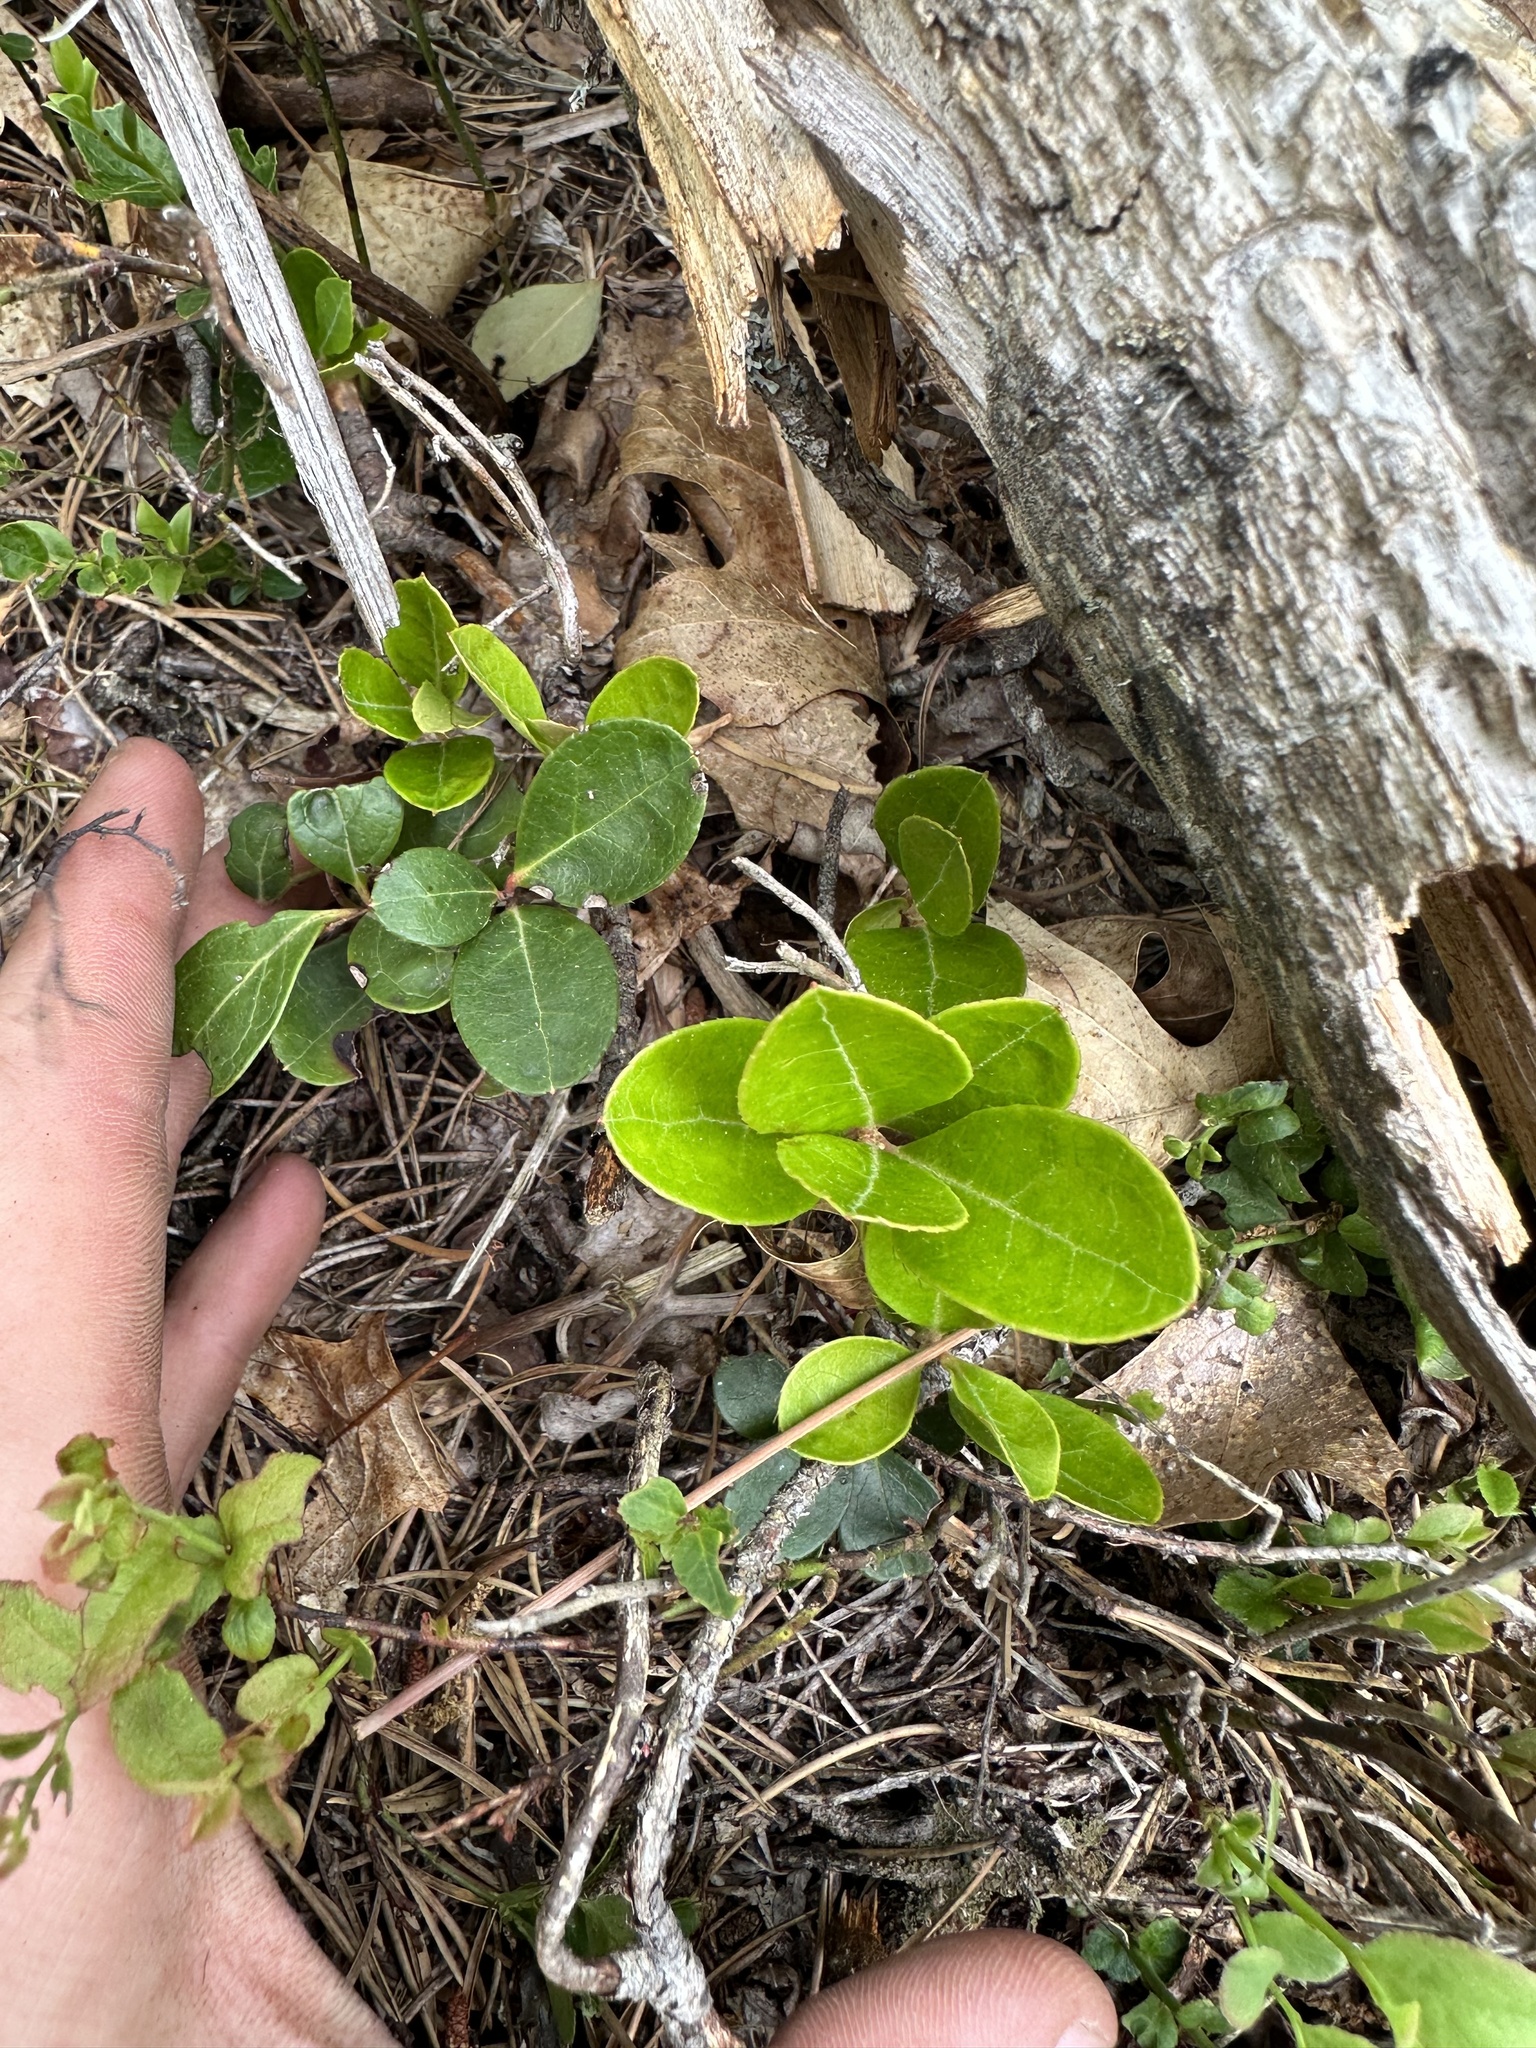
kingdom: Plantae
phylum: Tracheophyta
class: Magnoliopsida
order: Ericales
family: Ericaceae
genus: Gaultheria
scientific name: Gaultheria procumbens
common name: Checkerberry
